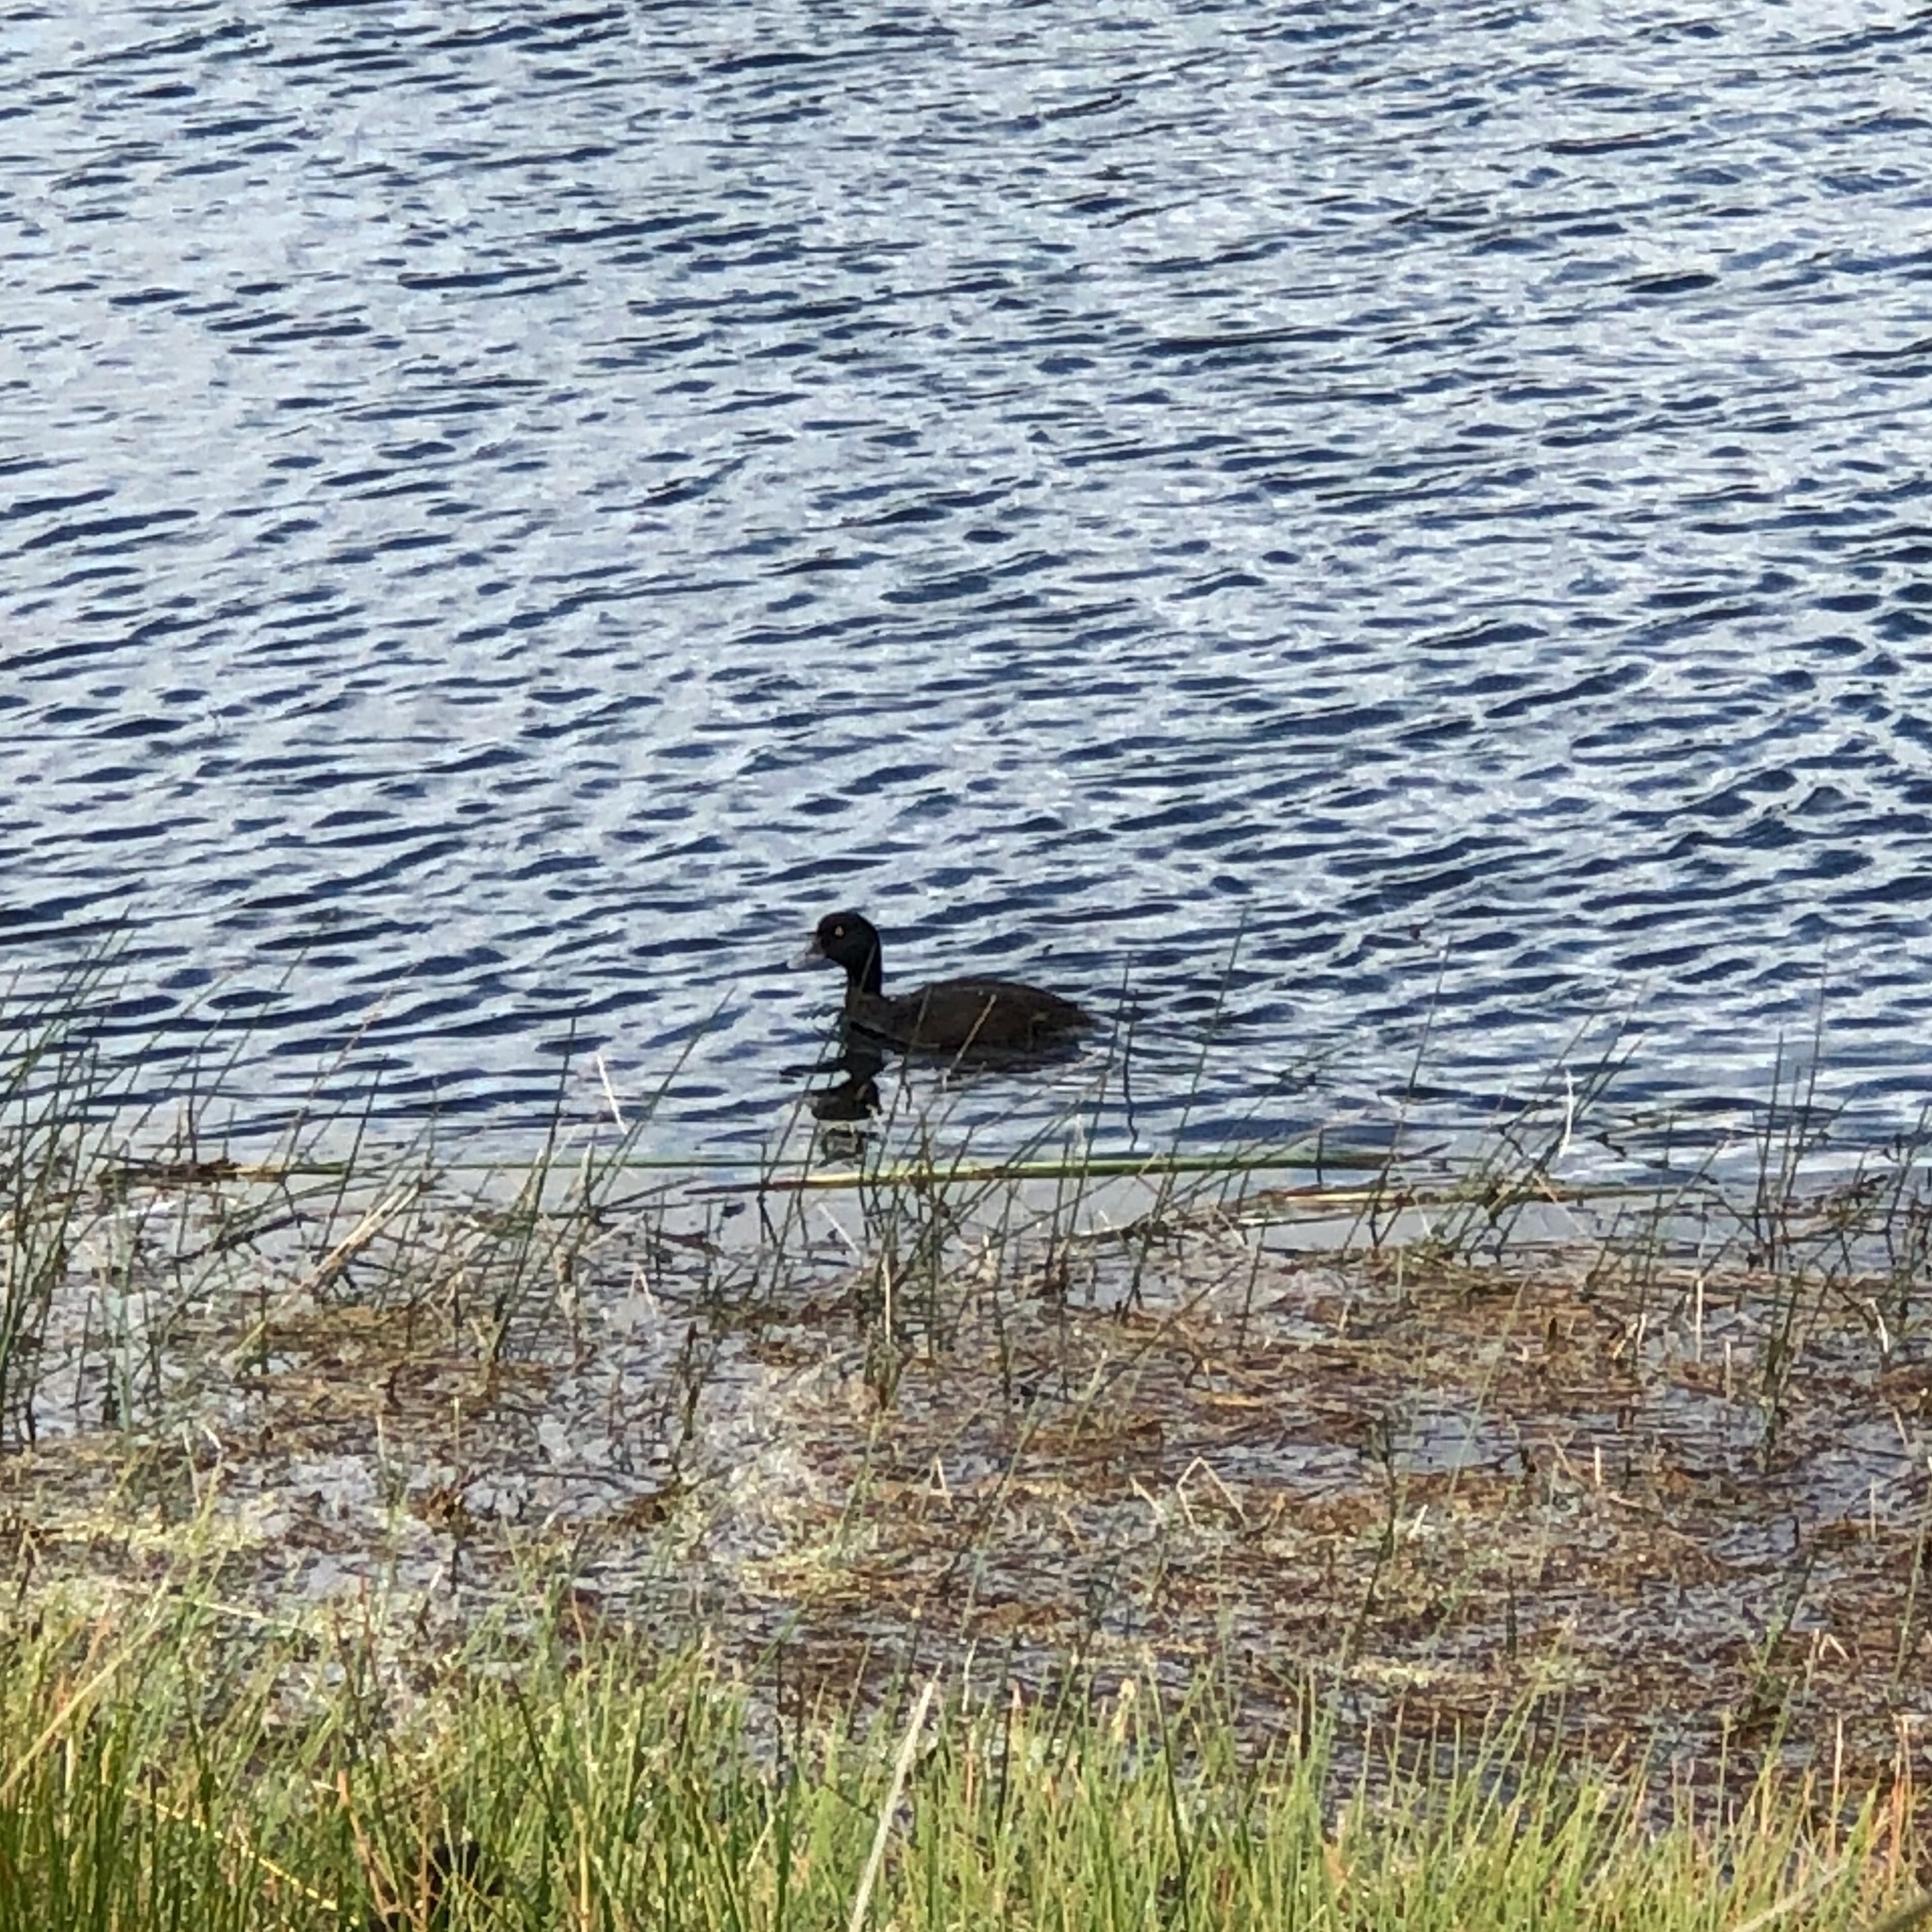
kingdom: Animalia
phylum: Chordata
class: Aves
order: Anseriformes
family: Anatidae
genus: Aythya
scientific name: Aythya novaeseelandiae
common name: New zealand scaup
